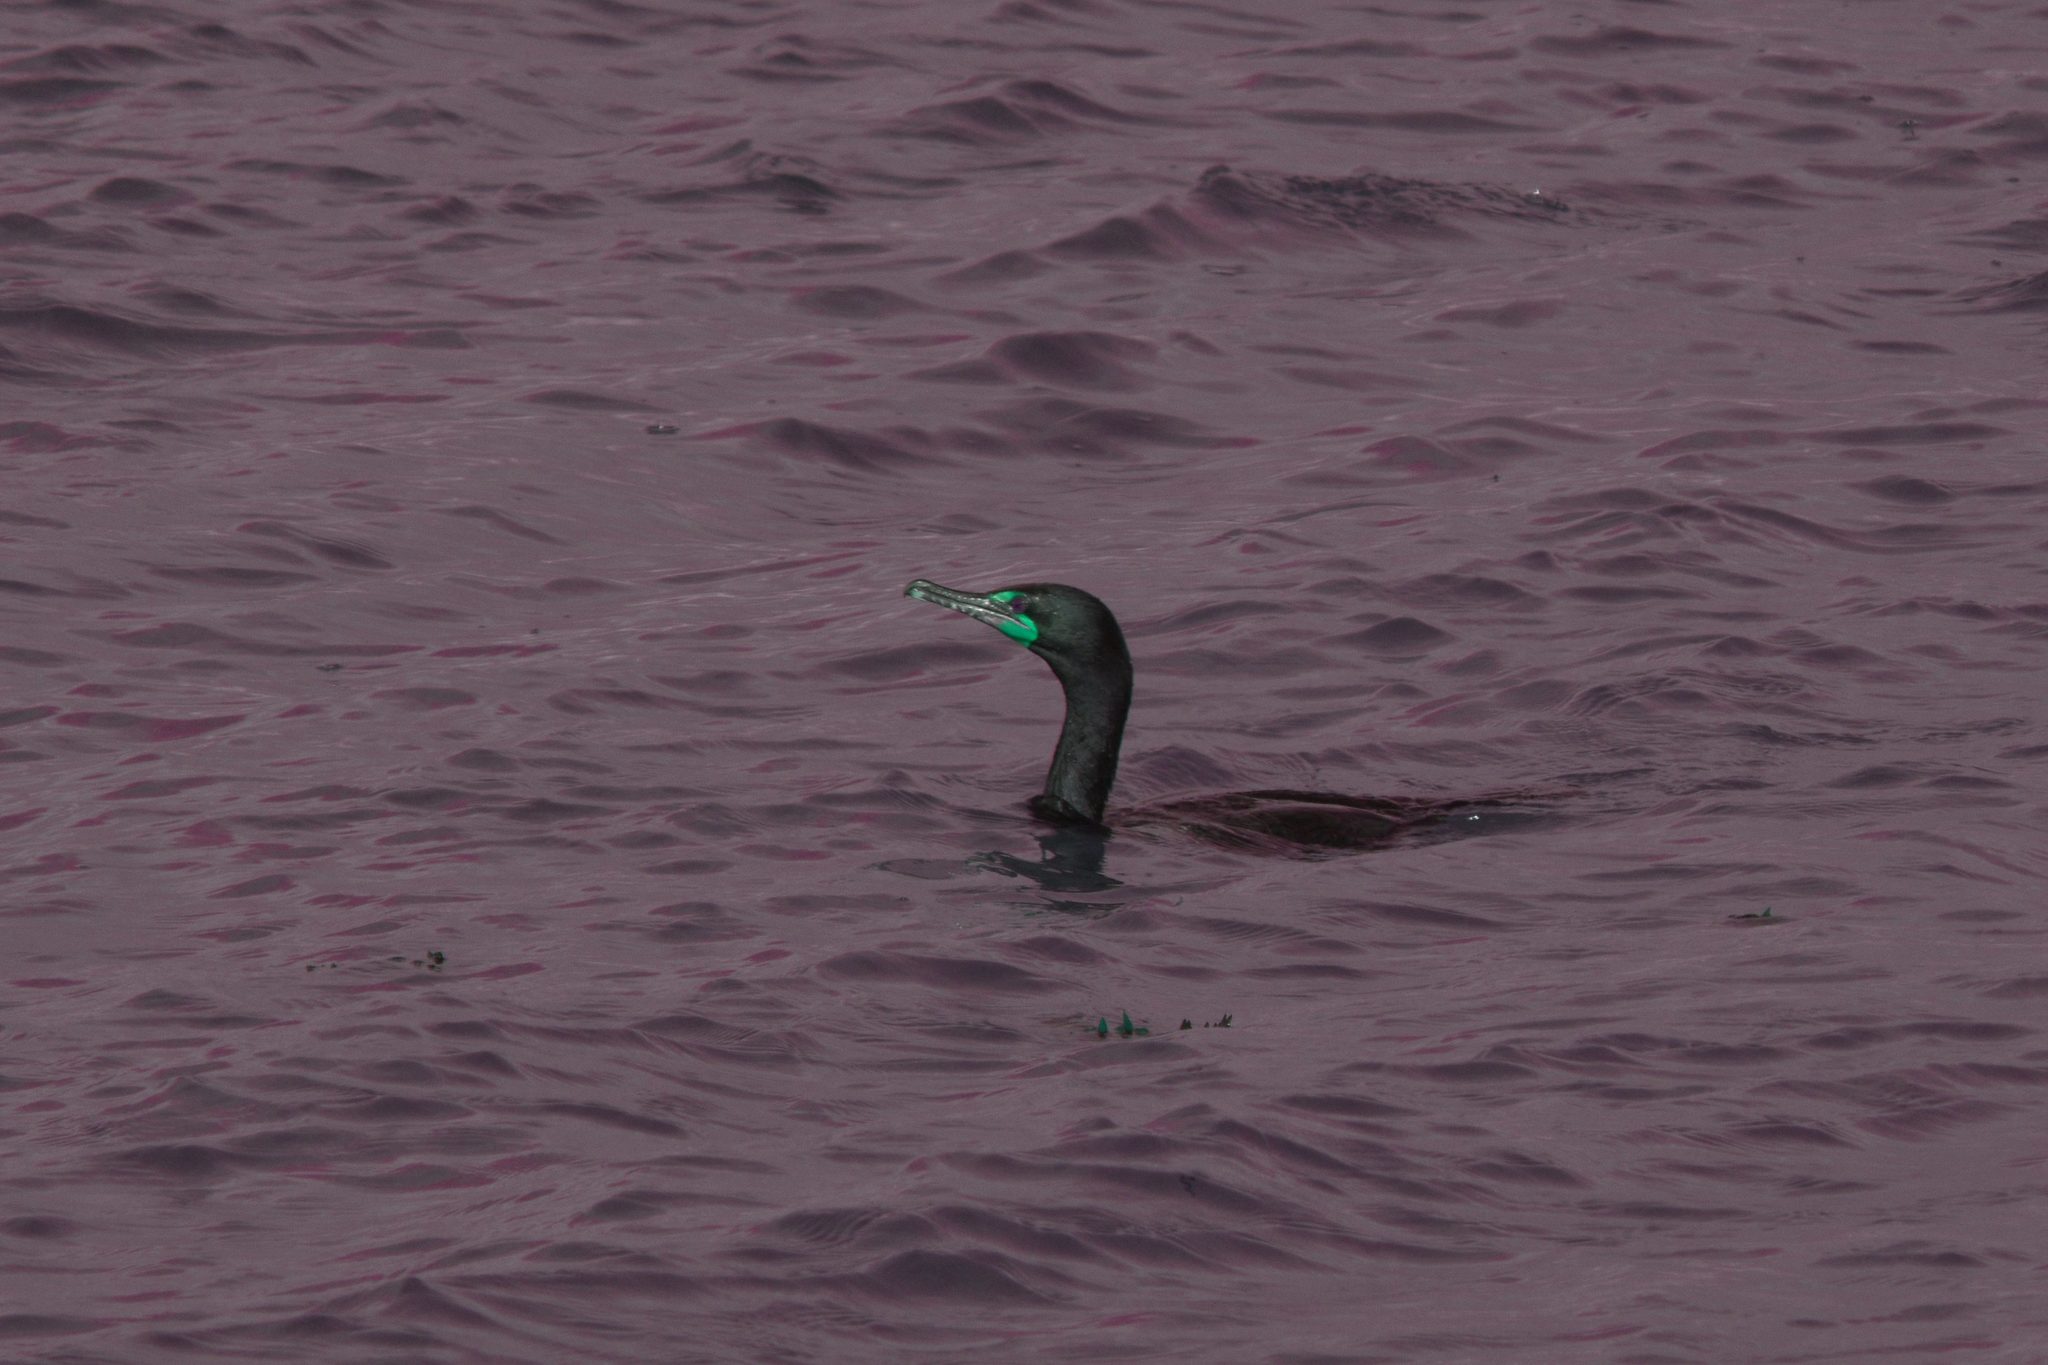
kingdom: Animalia
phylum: Chordata
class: Aves
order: Suliformes
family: Phalacrocoracidae
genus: Phalacrocorax
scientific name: Phalacrocorax auritus
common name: Double-crested cormorant
